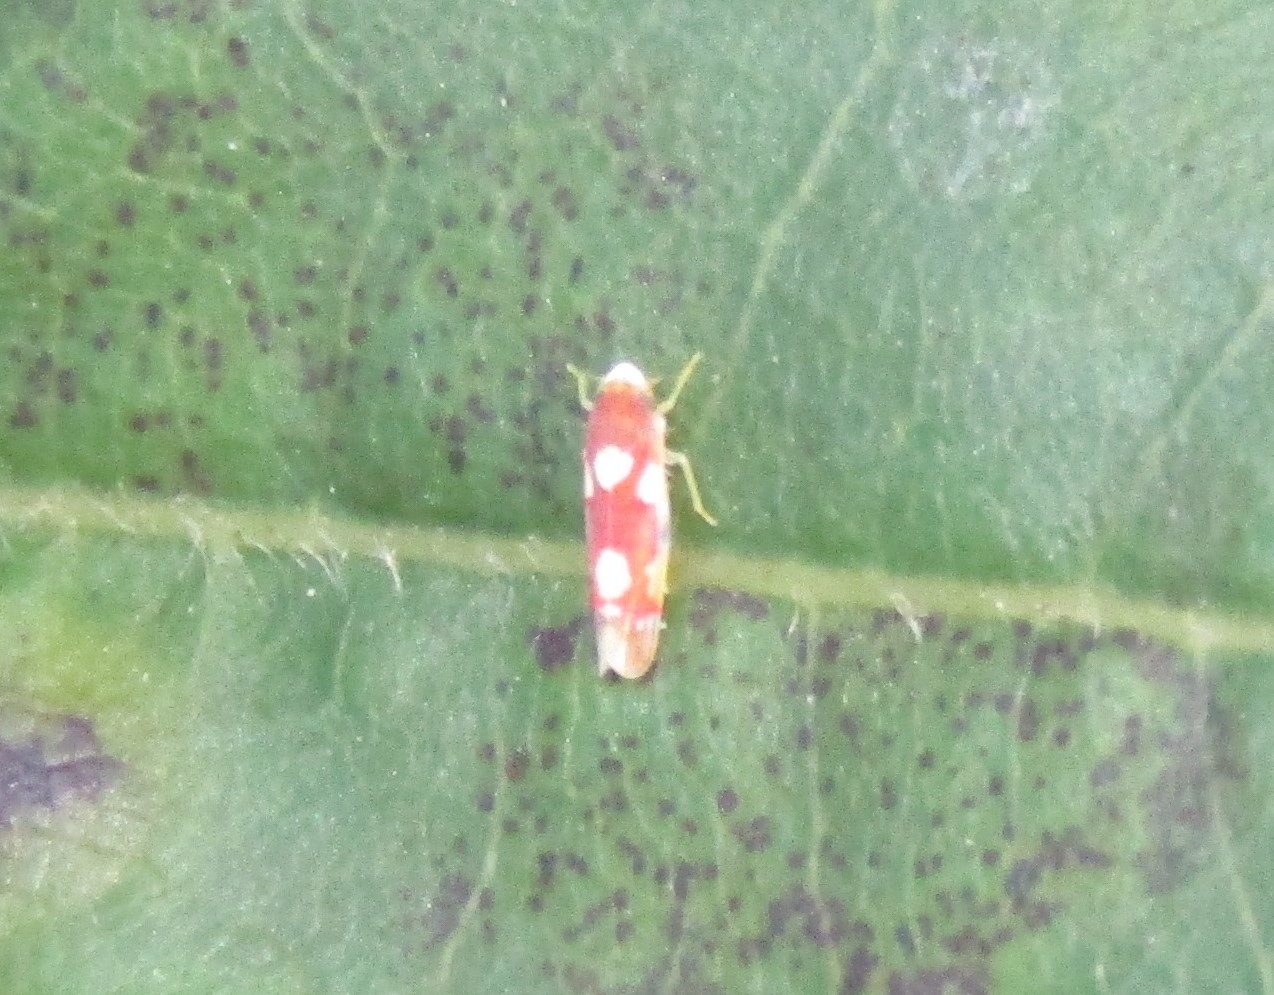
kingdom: Animalia
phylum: Arthropoda
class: Insecta
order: Hemiptera
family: Cicadellidae
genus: Erythroneura
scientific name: Erythroneura bistrata
